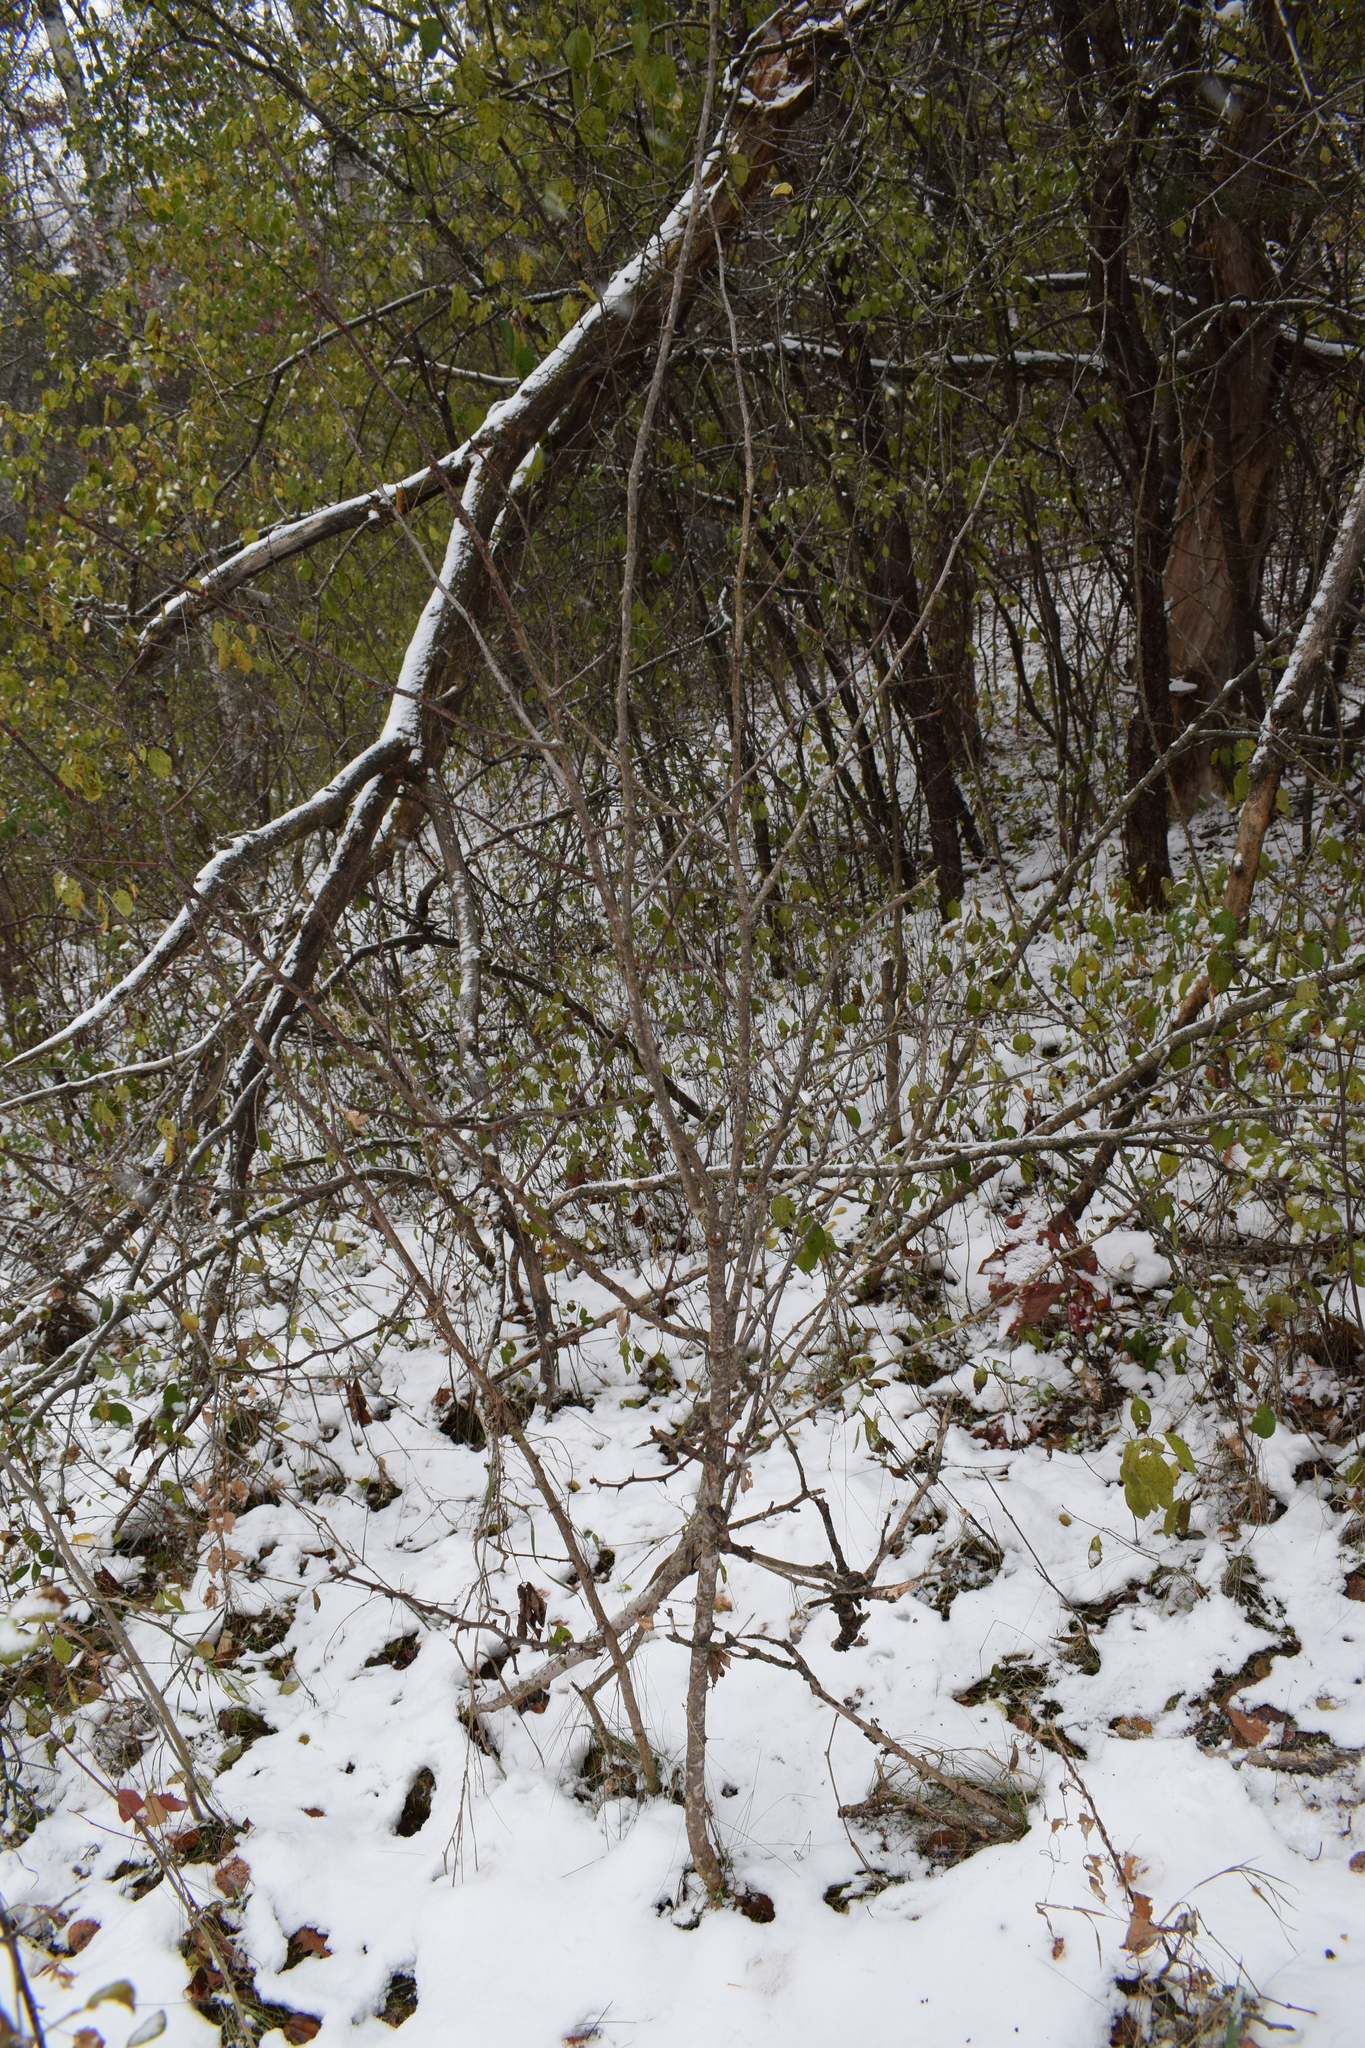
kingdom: Plantae
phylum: Tracheophyta
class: Magnoliopsida
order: Sapindales
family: Rutaceae
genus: Zanthoxylum
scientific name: Zanthoxylum americanum
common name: Northern prickly-ash
